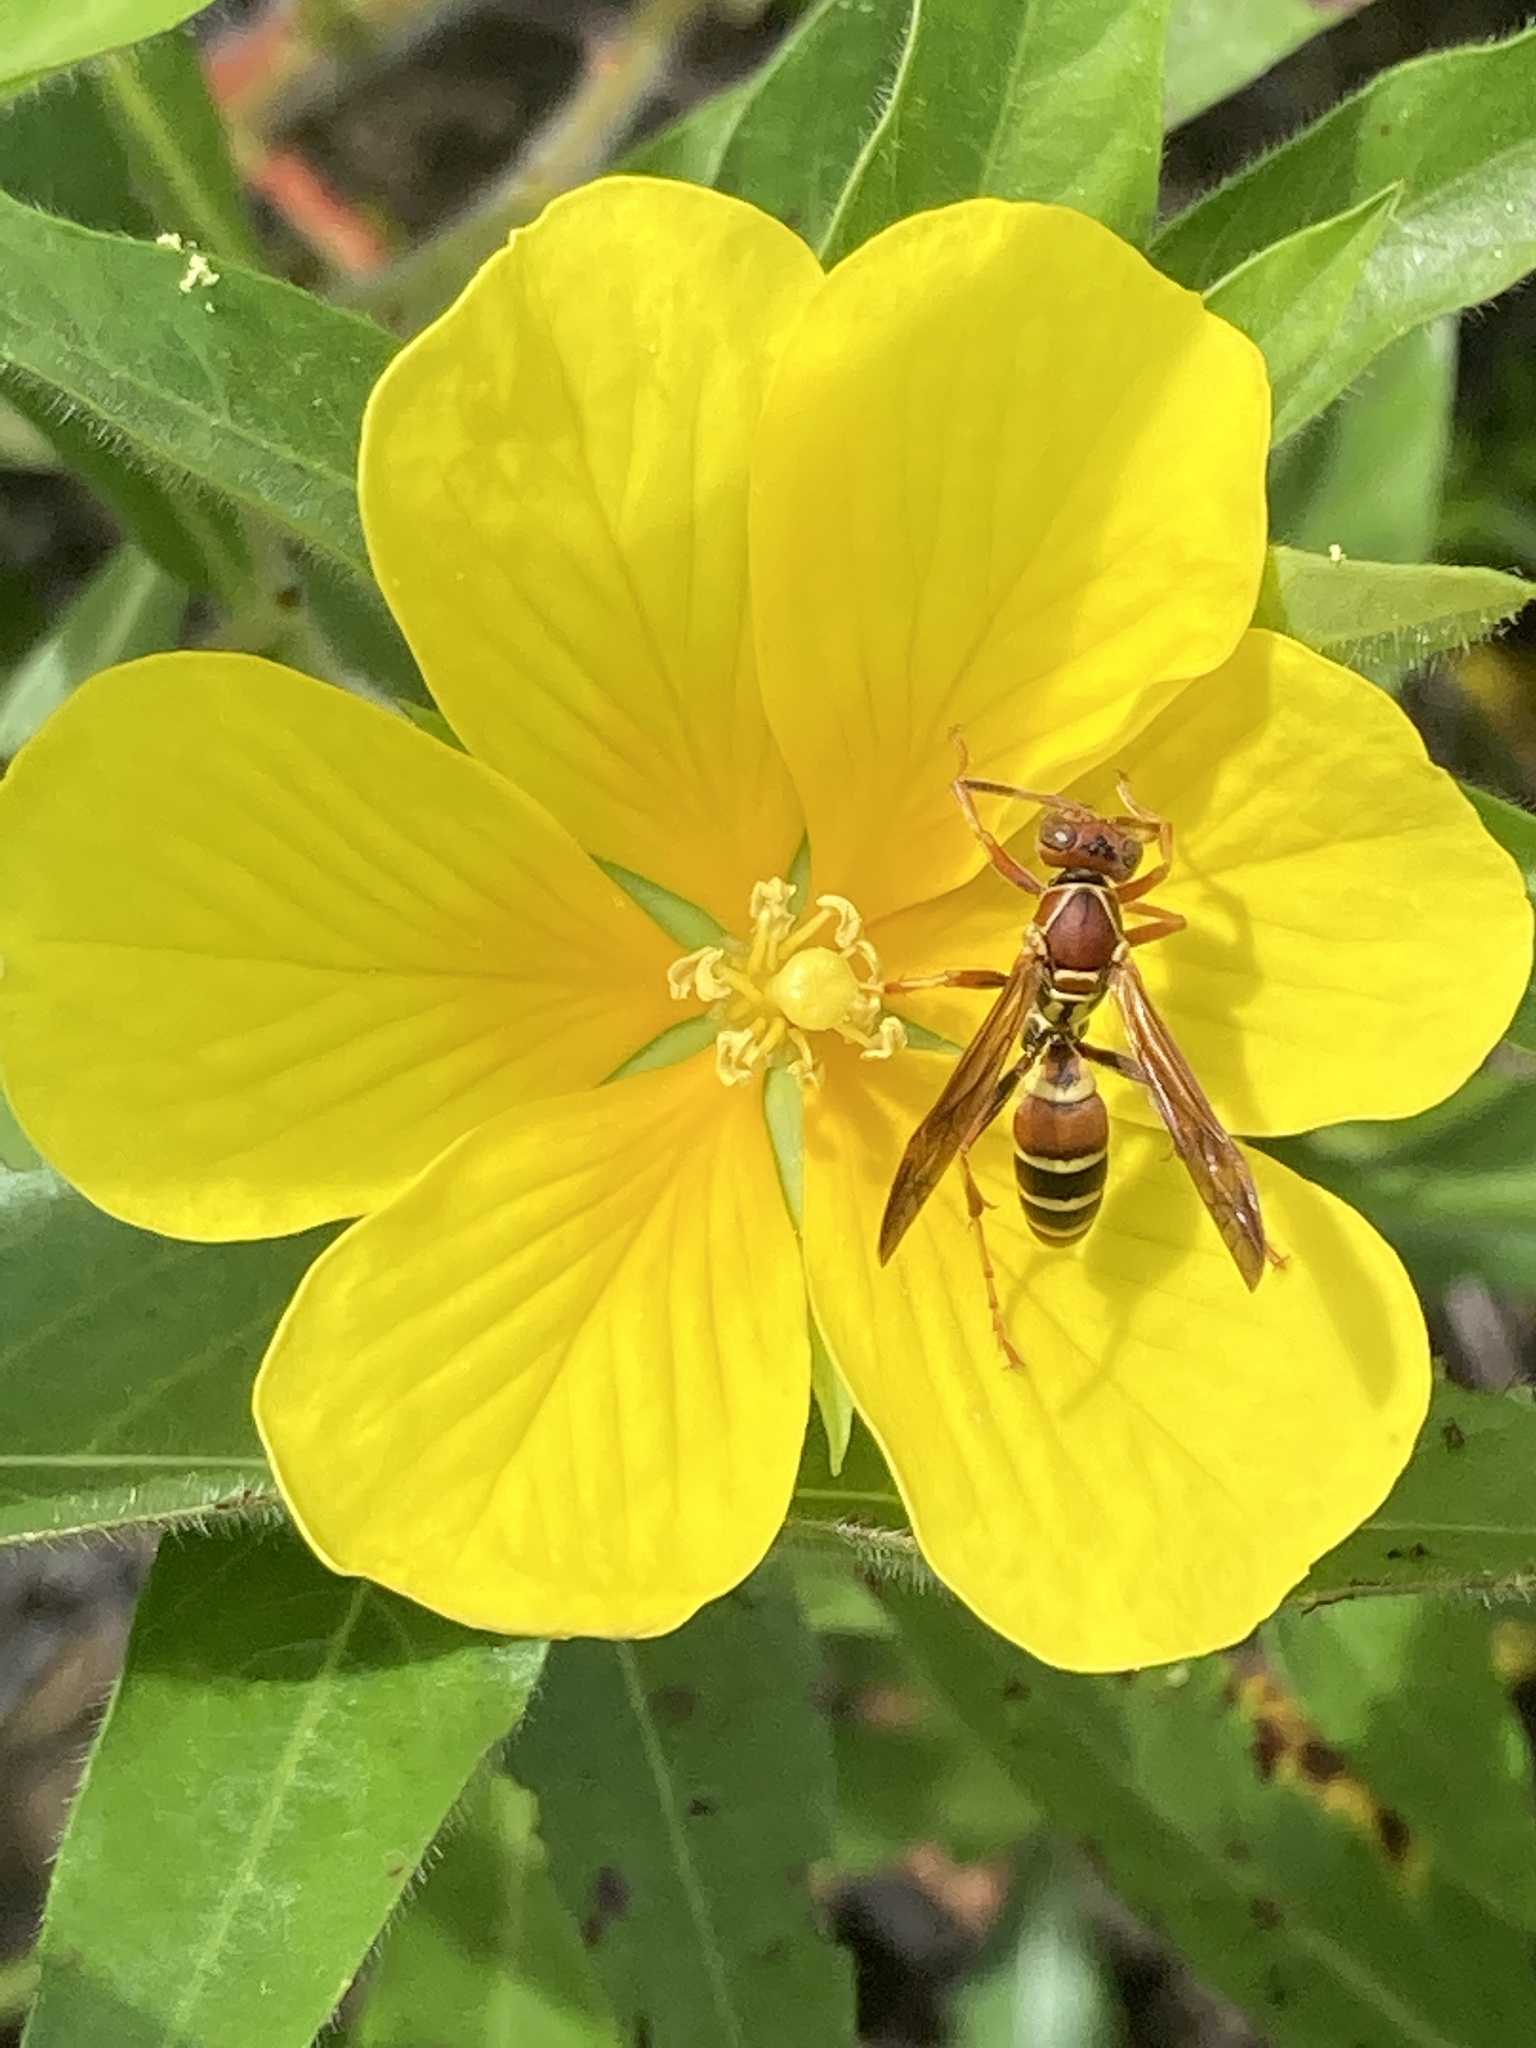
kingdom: Animalia
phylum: Arthropoda
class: Insecta
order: Hymenoptera
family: Eumenidae
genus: Polistes
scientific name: Polistes dorsalis
